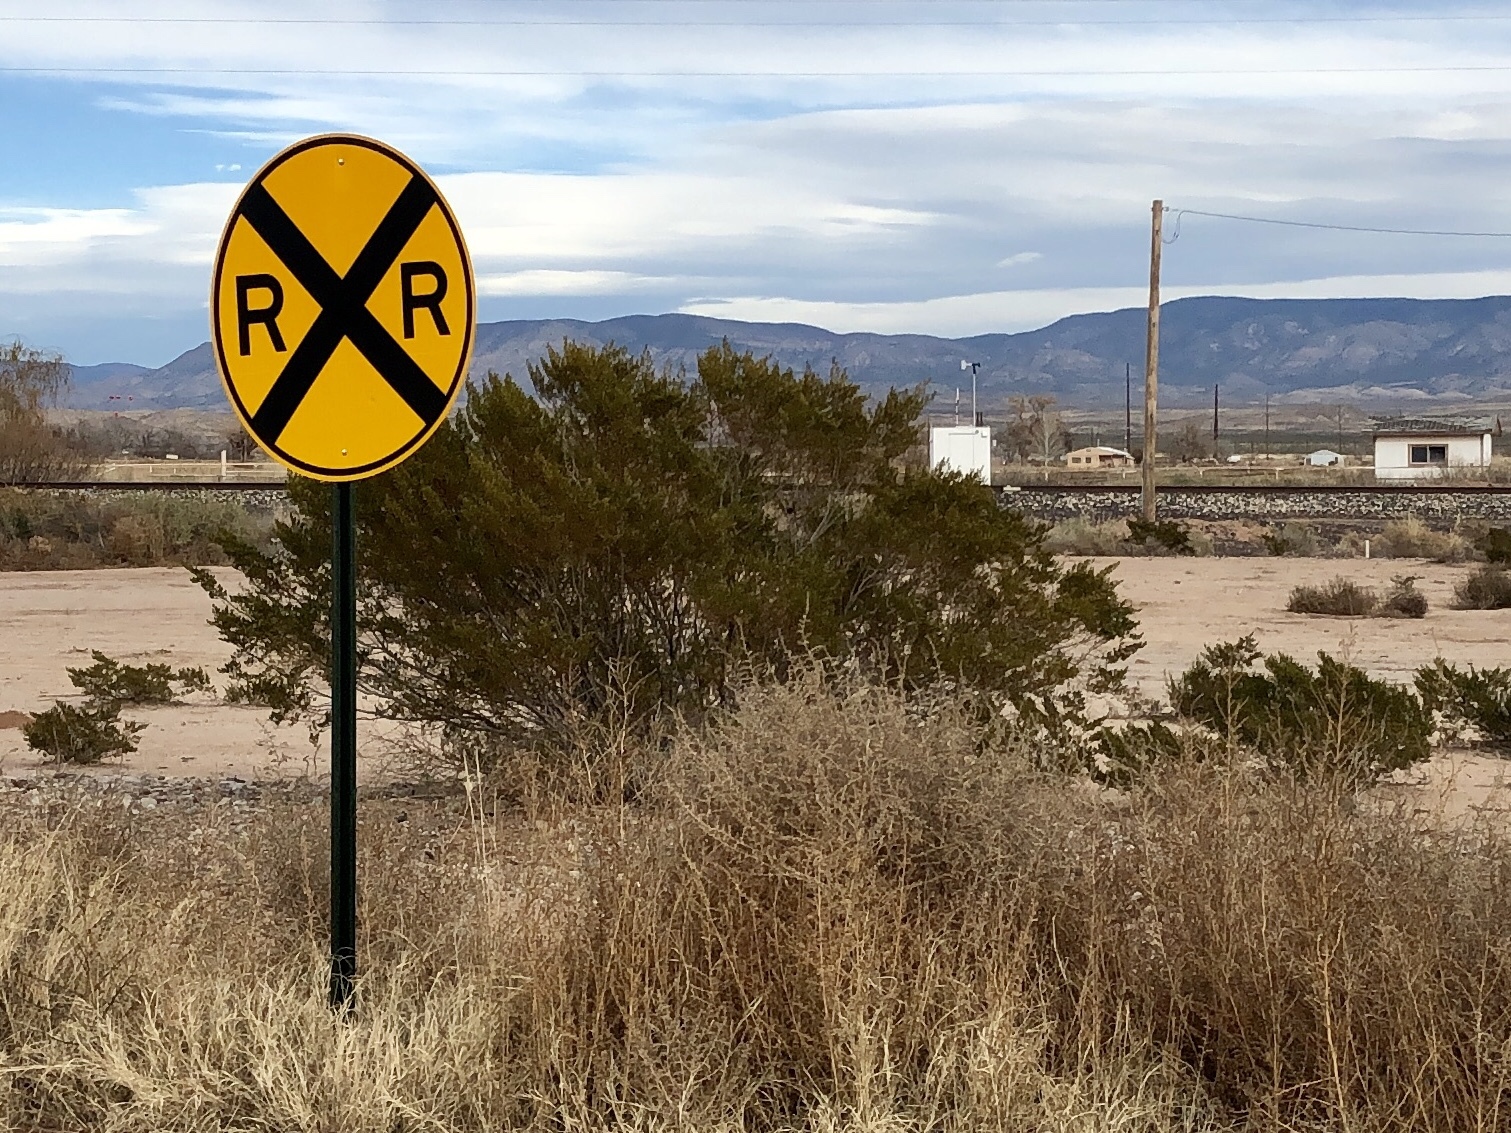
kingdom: Plantae
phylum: Tracheophyta
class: Magnoliopsida
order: Zygophyllales
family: Zygophyllaceae
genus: Larrea
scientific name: Larrea tridentata
